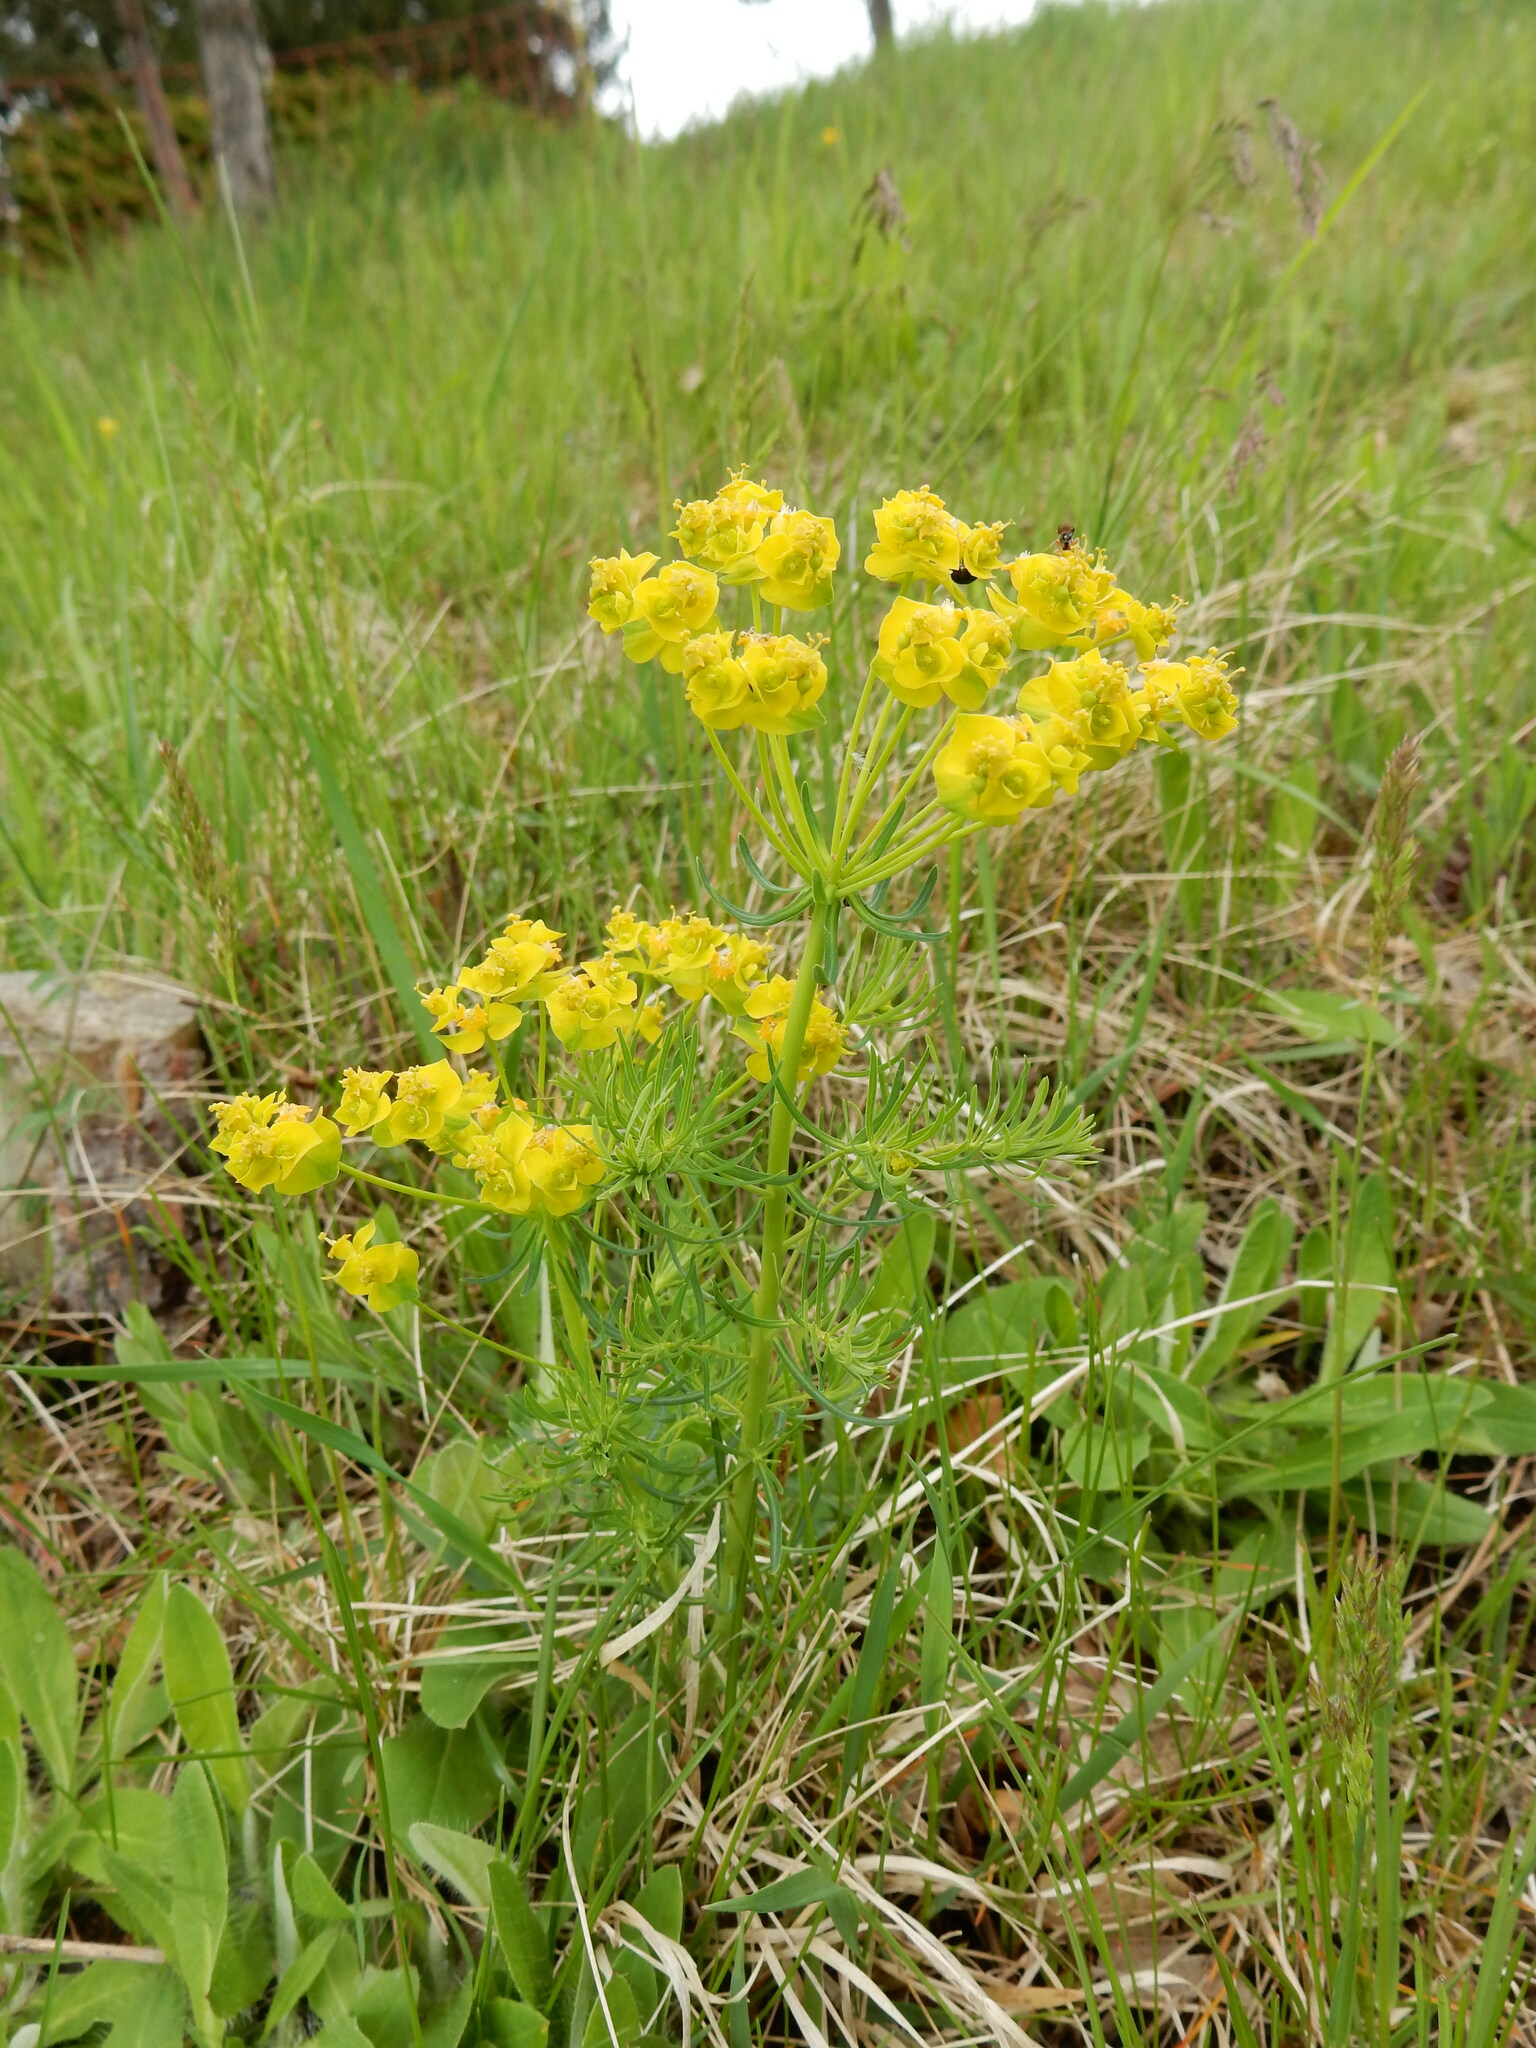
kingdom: Plantae
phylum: Tracheophyta
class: Magnoliopsida
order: Malpighiales
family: Euphorbiaceae
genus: Euphorbia
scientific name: Euphorbia cyparissias
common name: Cypress spurge
